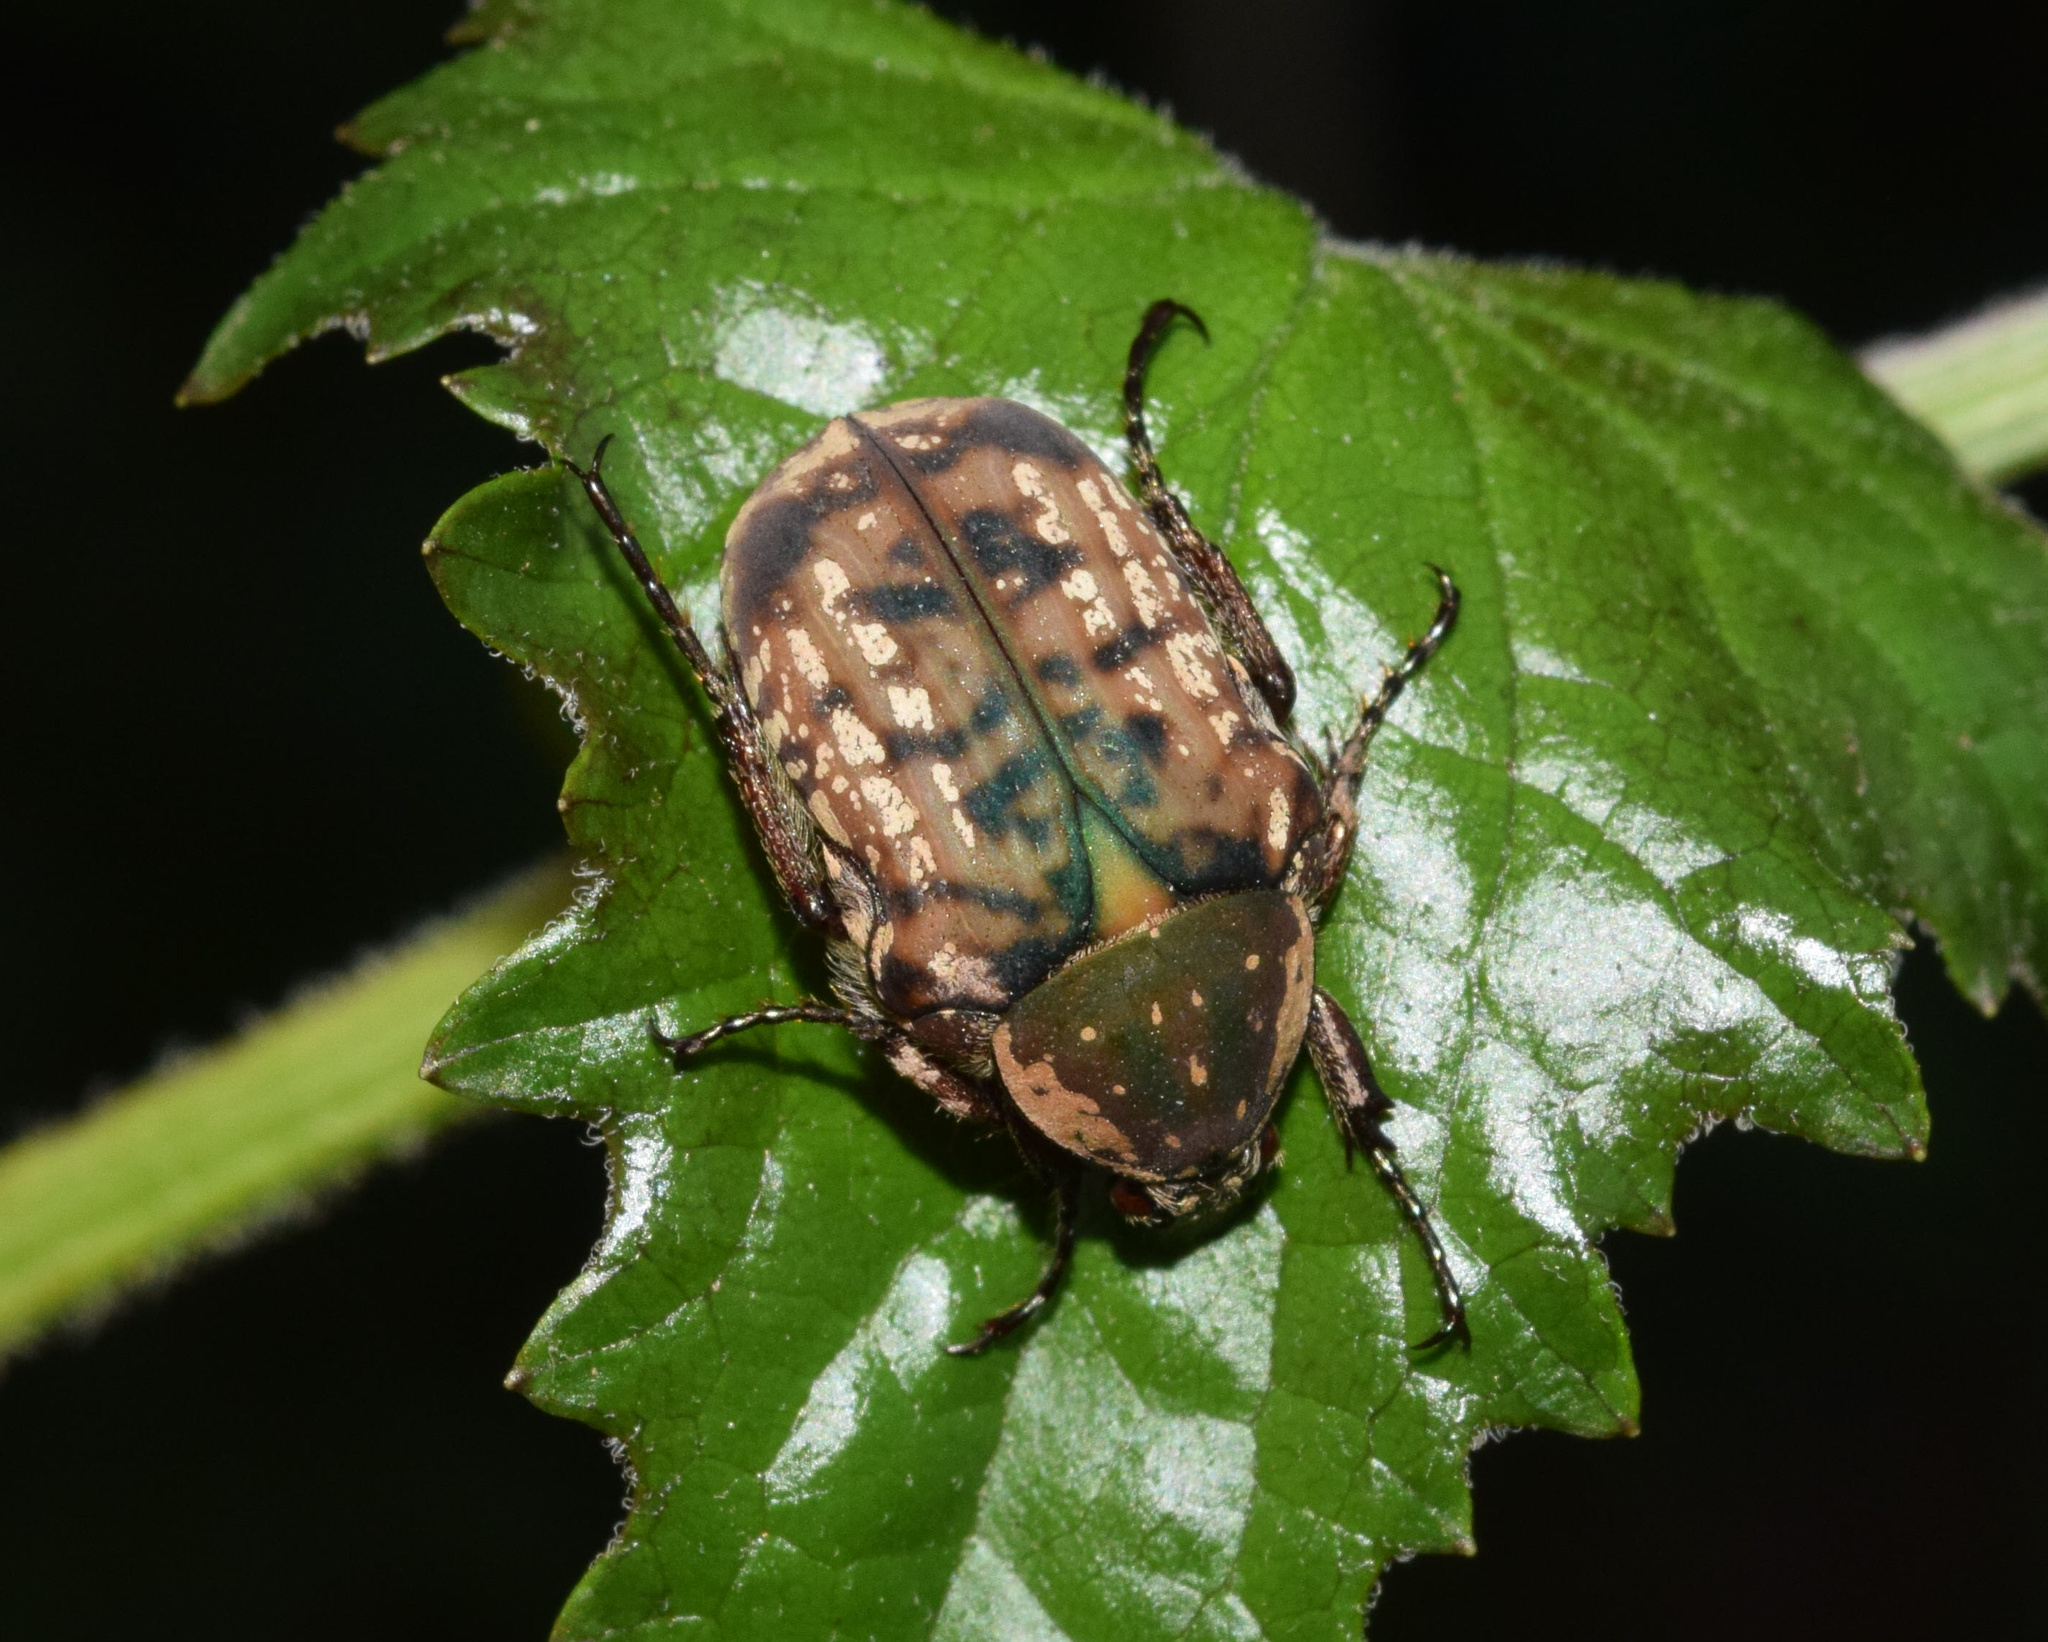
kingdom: Animalia
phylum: Arthropoda
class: Insecta
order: Coleoptera
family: Scarabaeidae
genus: Elaphinis
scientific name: Elaphinis irrorata
